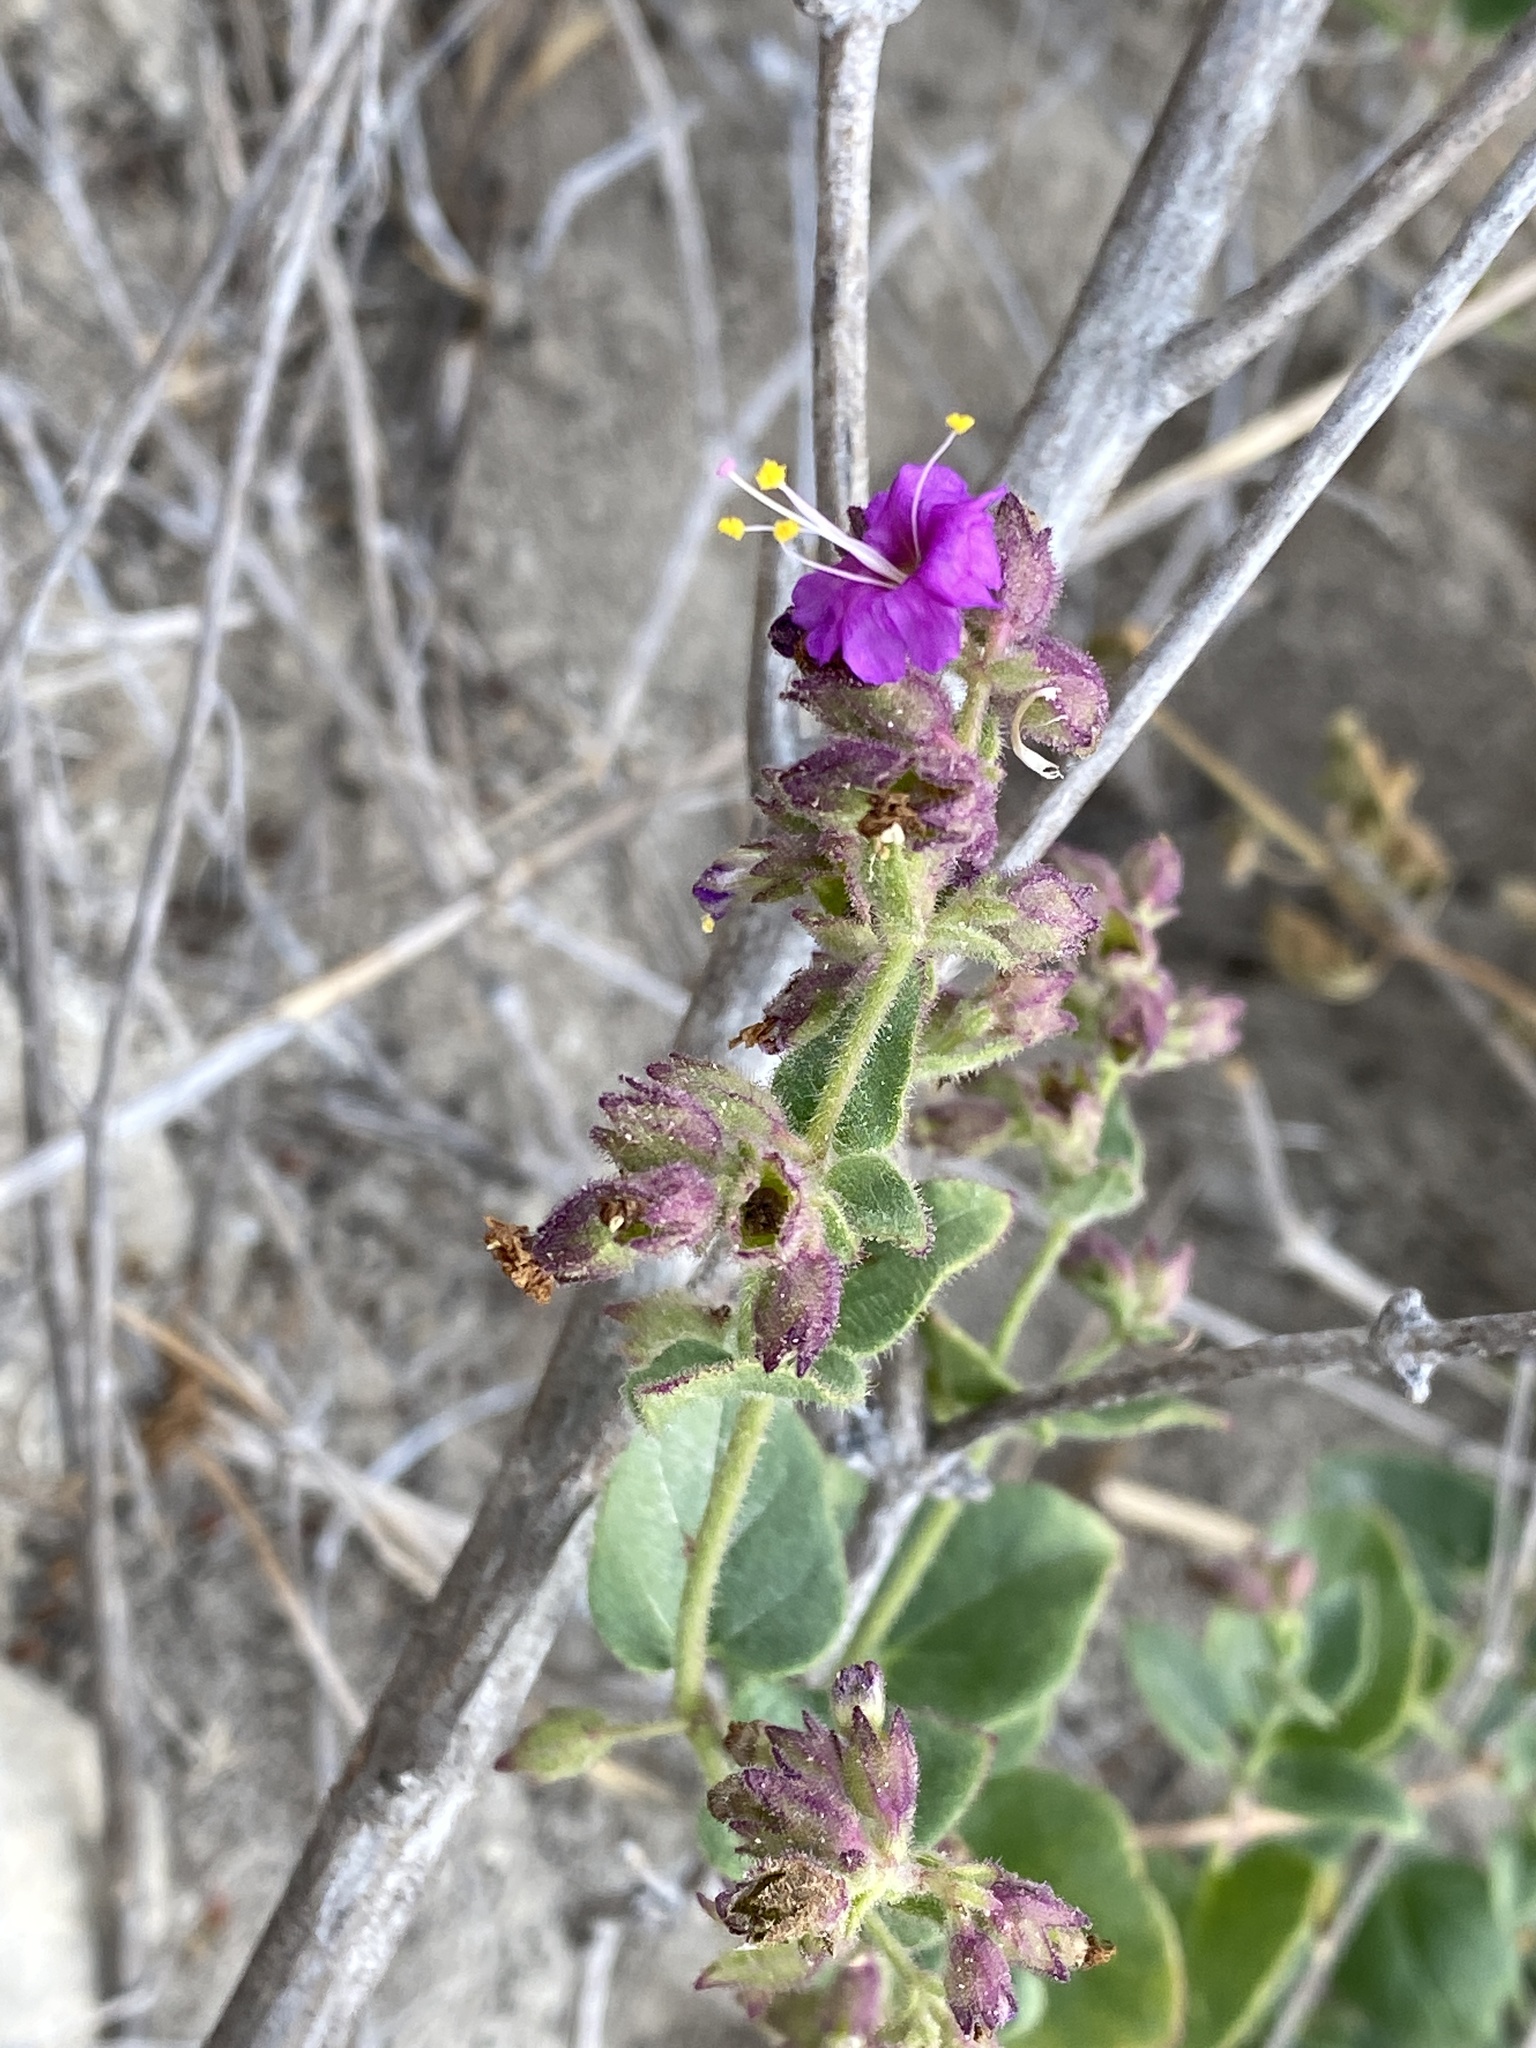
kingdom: Plantae
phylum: Tracheophyta
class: Magnoliopsida
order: Caryophyllales
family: Nyctaginaceae
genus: Mirabilis
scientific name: Mirabilis laevis
